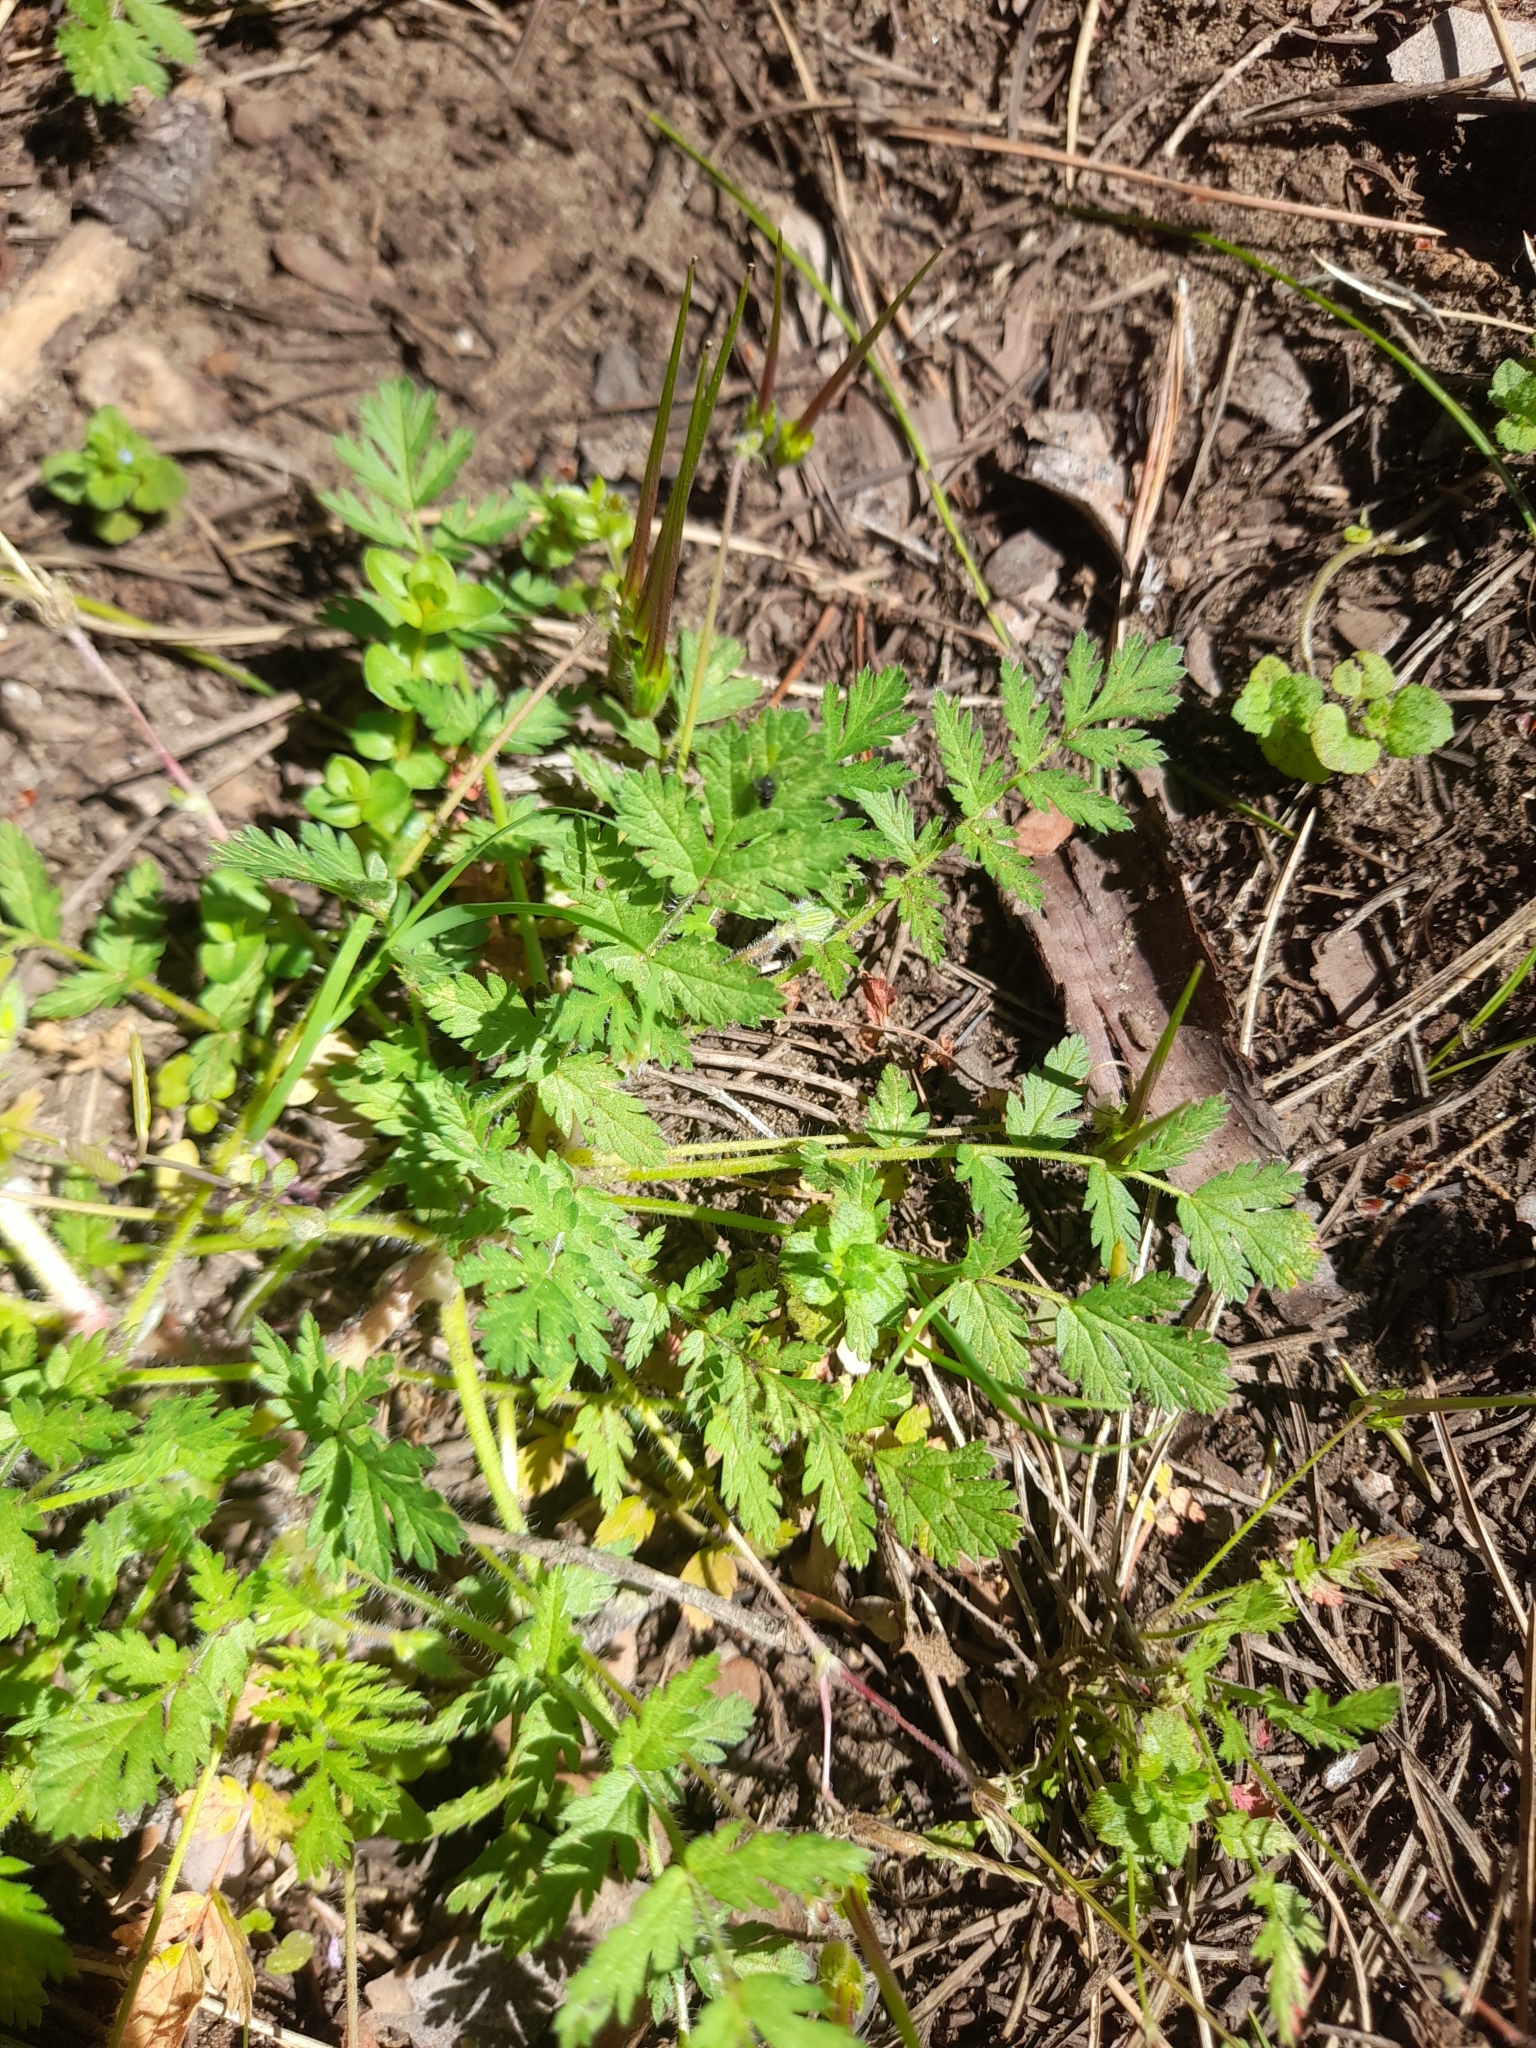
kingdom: Plantae
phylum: Tracheophyta
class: Magnoliopsida
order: Geraniales
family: Geraniaceae
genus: Erodium
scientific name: Erodium cicutarium
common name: Common stork's-bill
